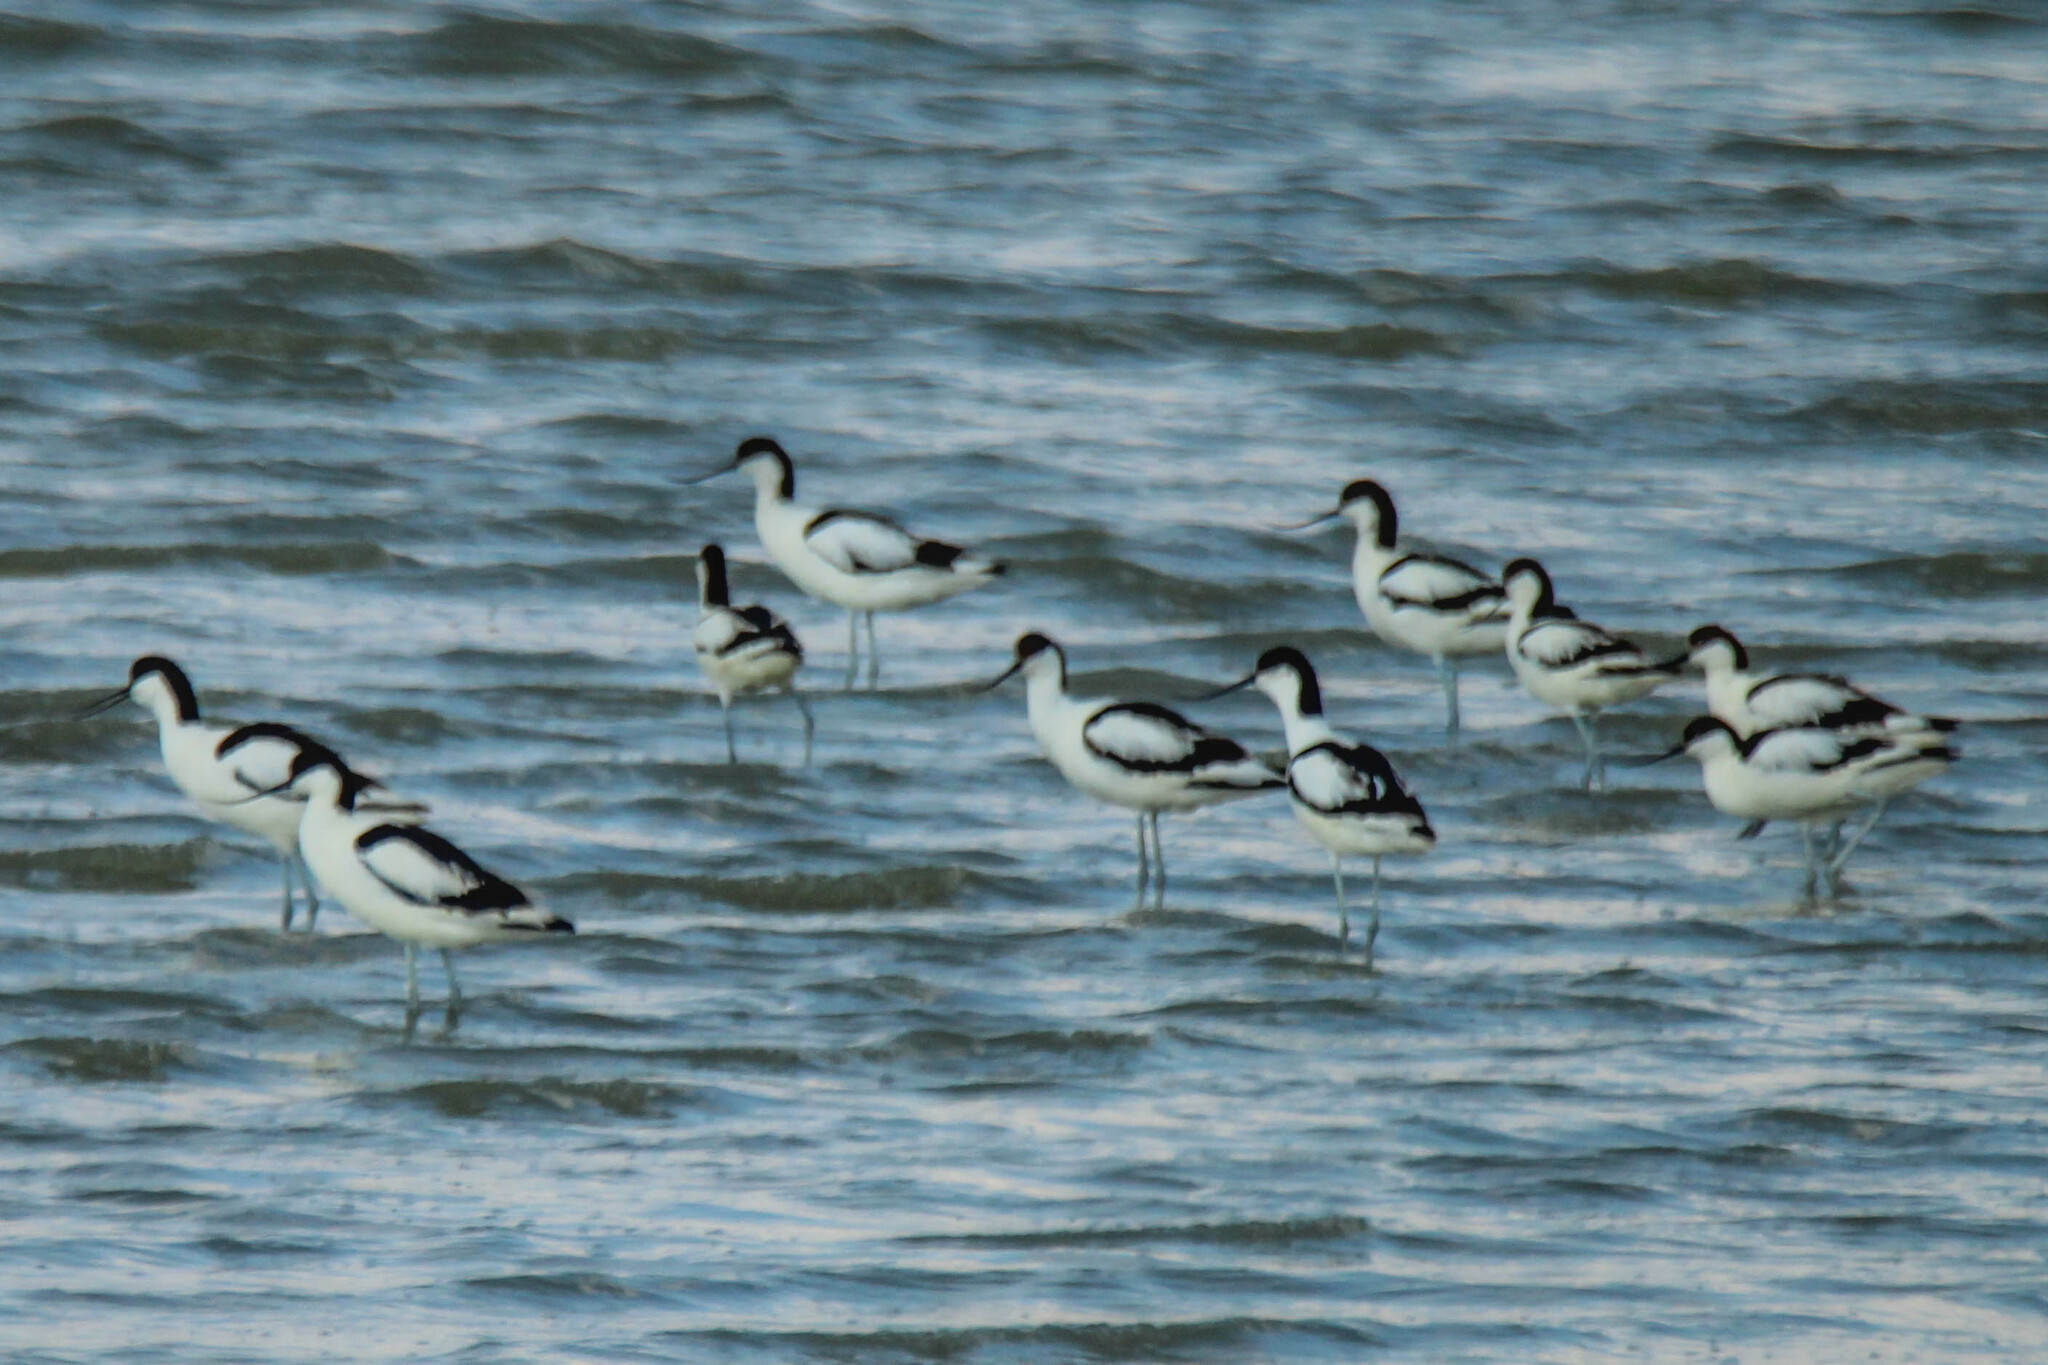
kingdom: Animalia
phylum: Chordata
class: Aves
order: Charadriiformes
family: Recurvirostridae
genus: Recurvirostra
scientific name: Recurvirostra avosetta
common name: Pied avocet
